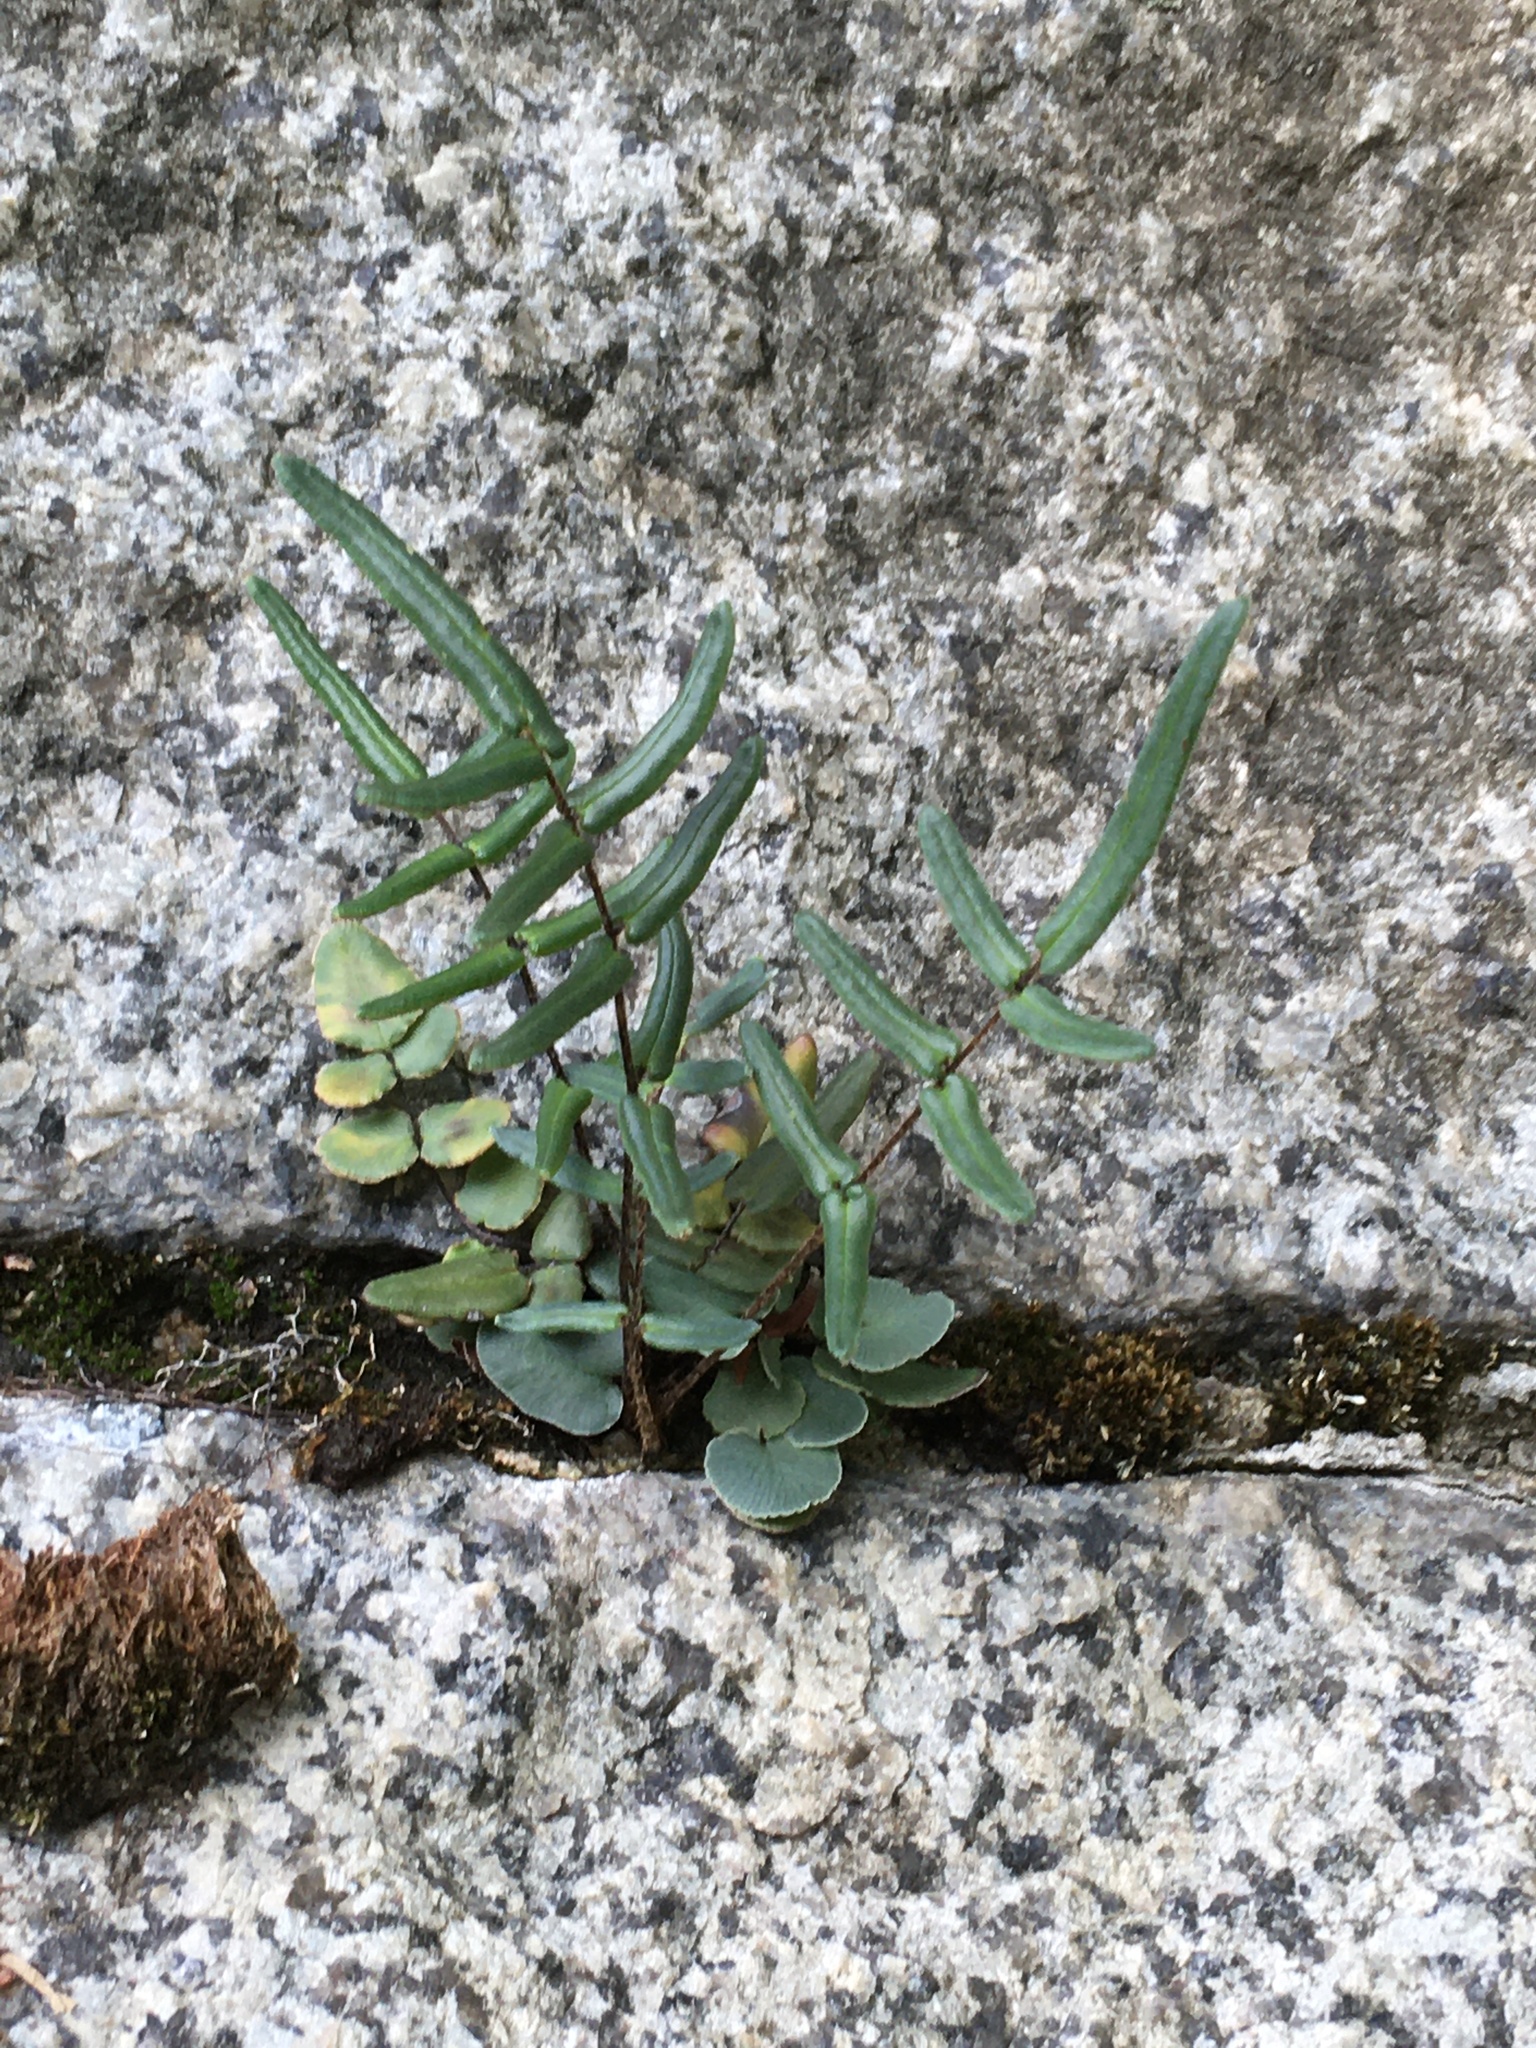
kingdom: Plantae
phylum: Tracheophyta
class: Polypodiopsida
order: Polypodiales
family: Pteridaceae
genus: Pellaea
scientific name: Pellaea atropurpurea
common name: Hairy cliffbrake
